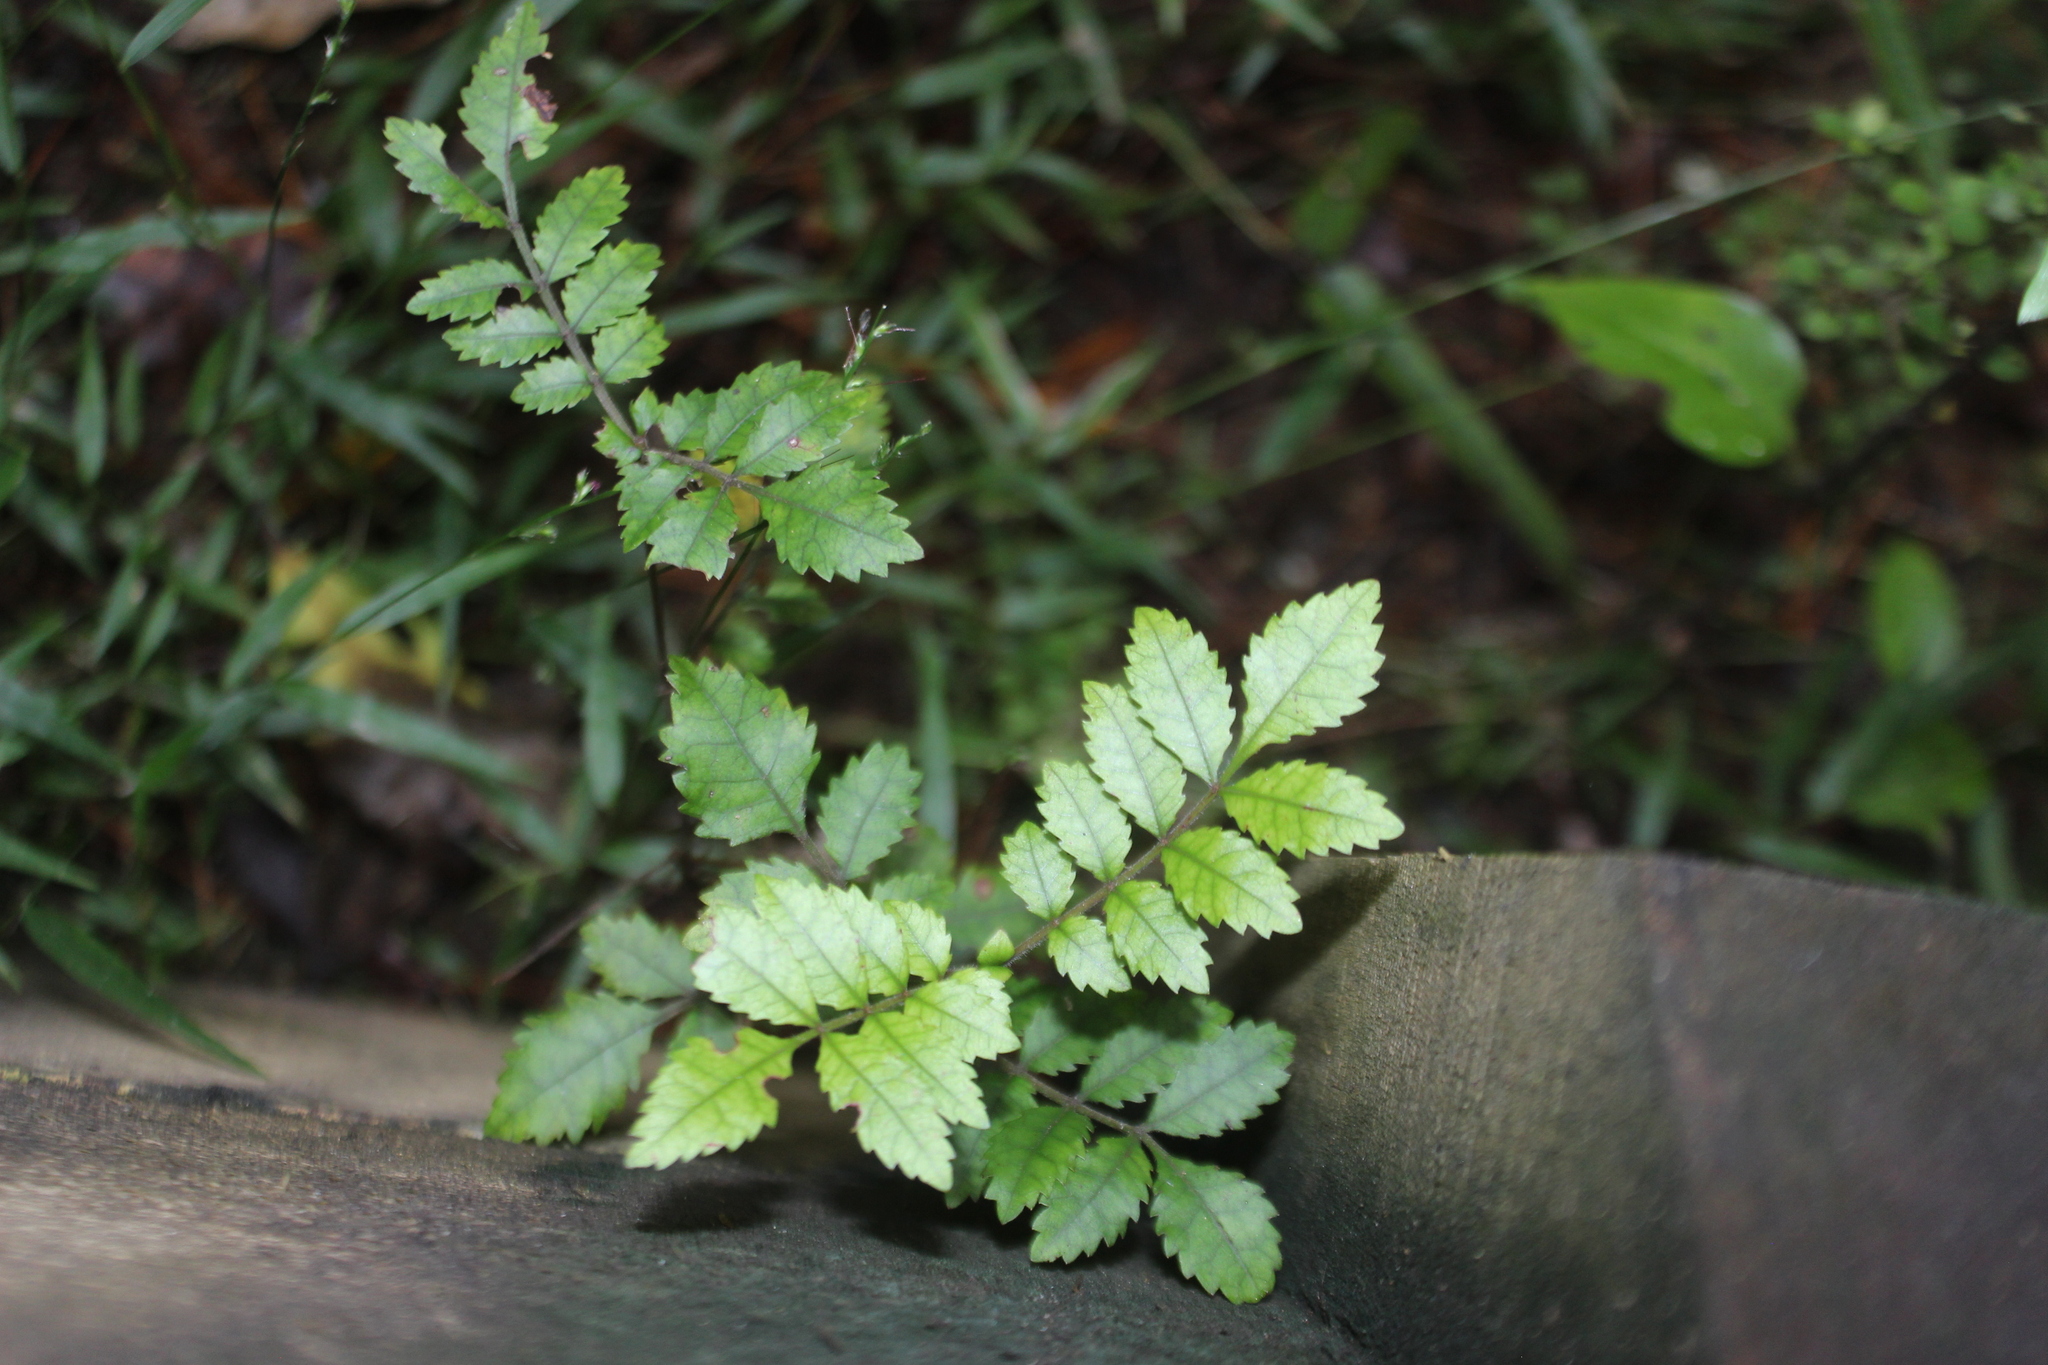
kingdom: Plantae
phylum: Tracheophyta
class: Magnoliopsida
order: Oxalidales
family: Cunoniaceae
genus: Pterophylla
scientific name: Pterophylla sylvicola
